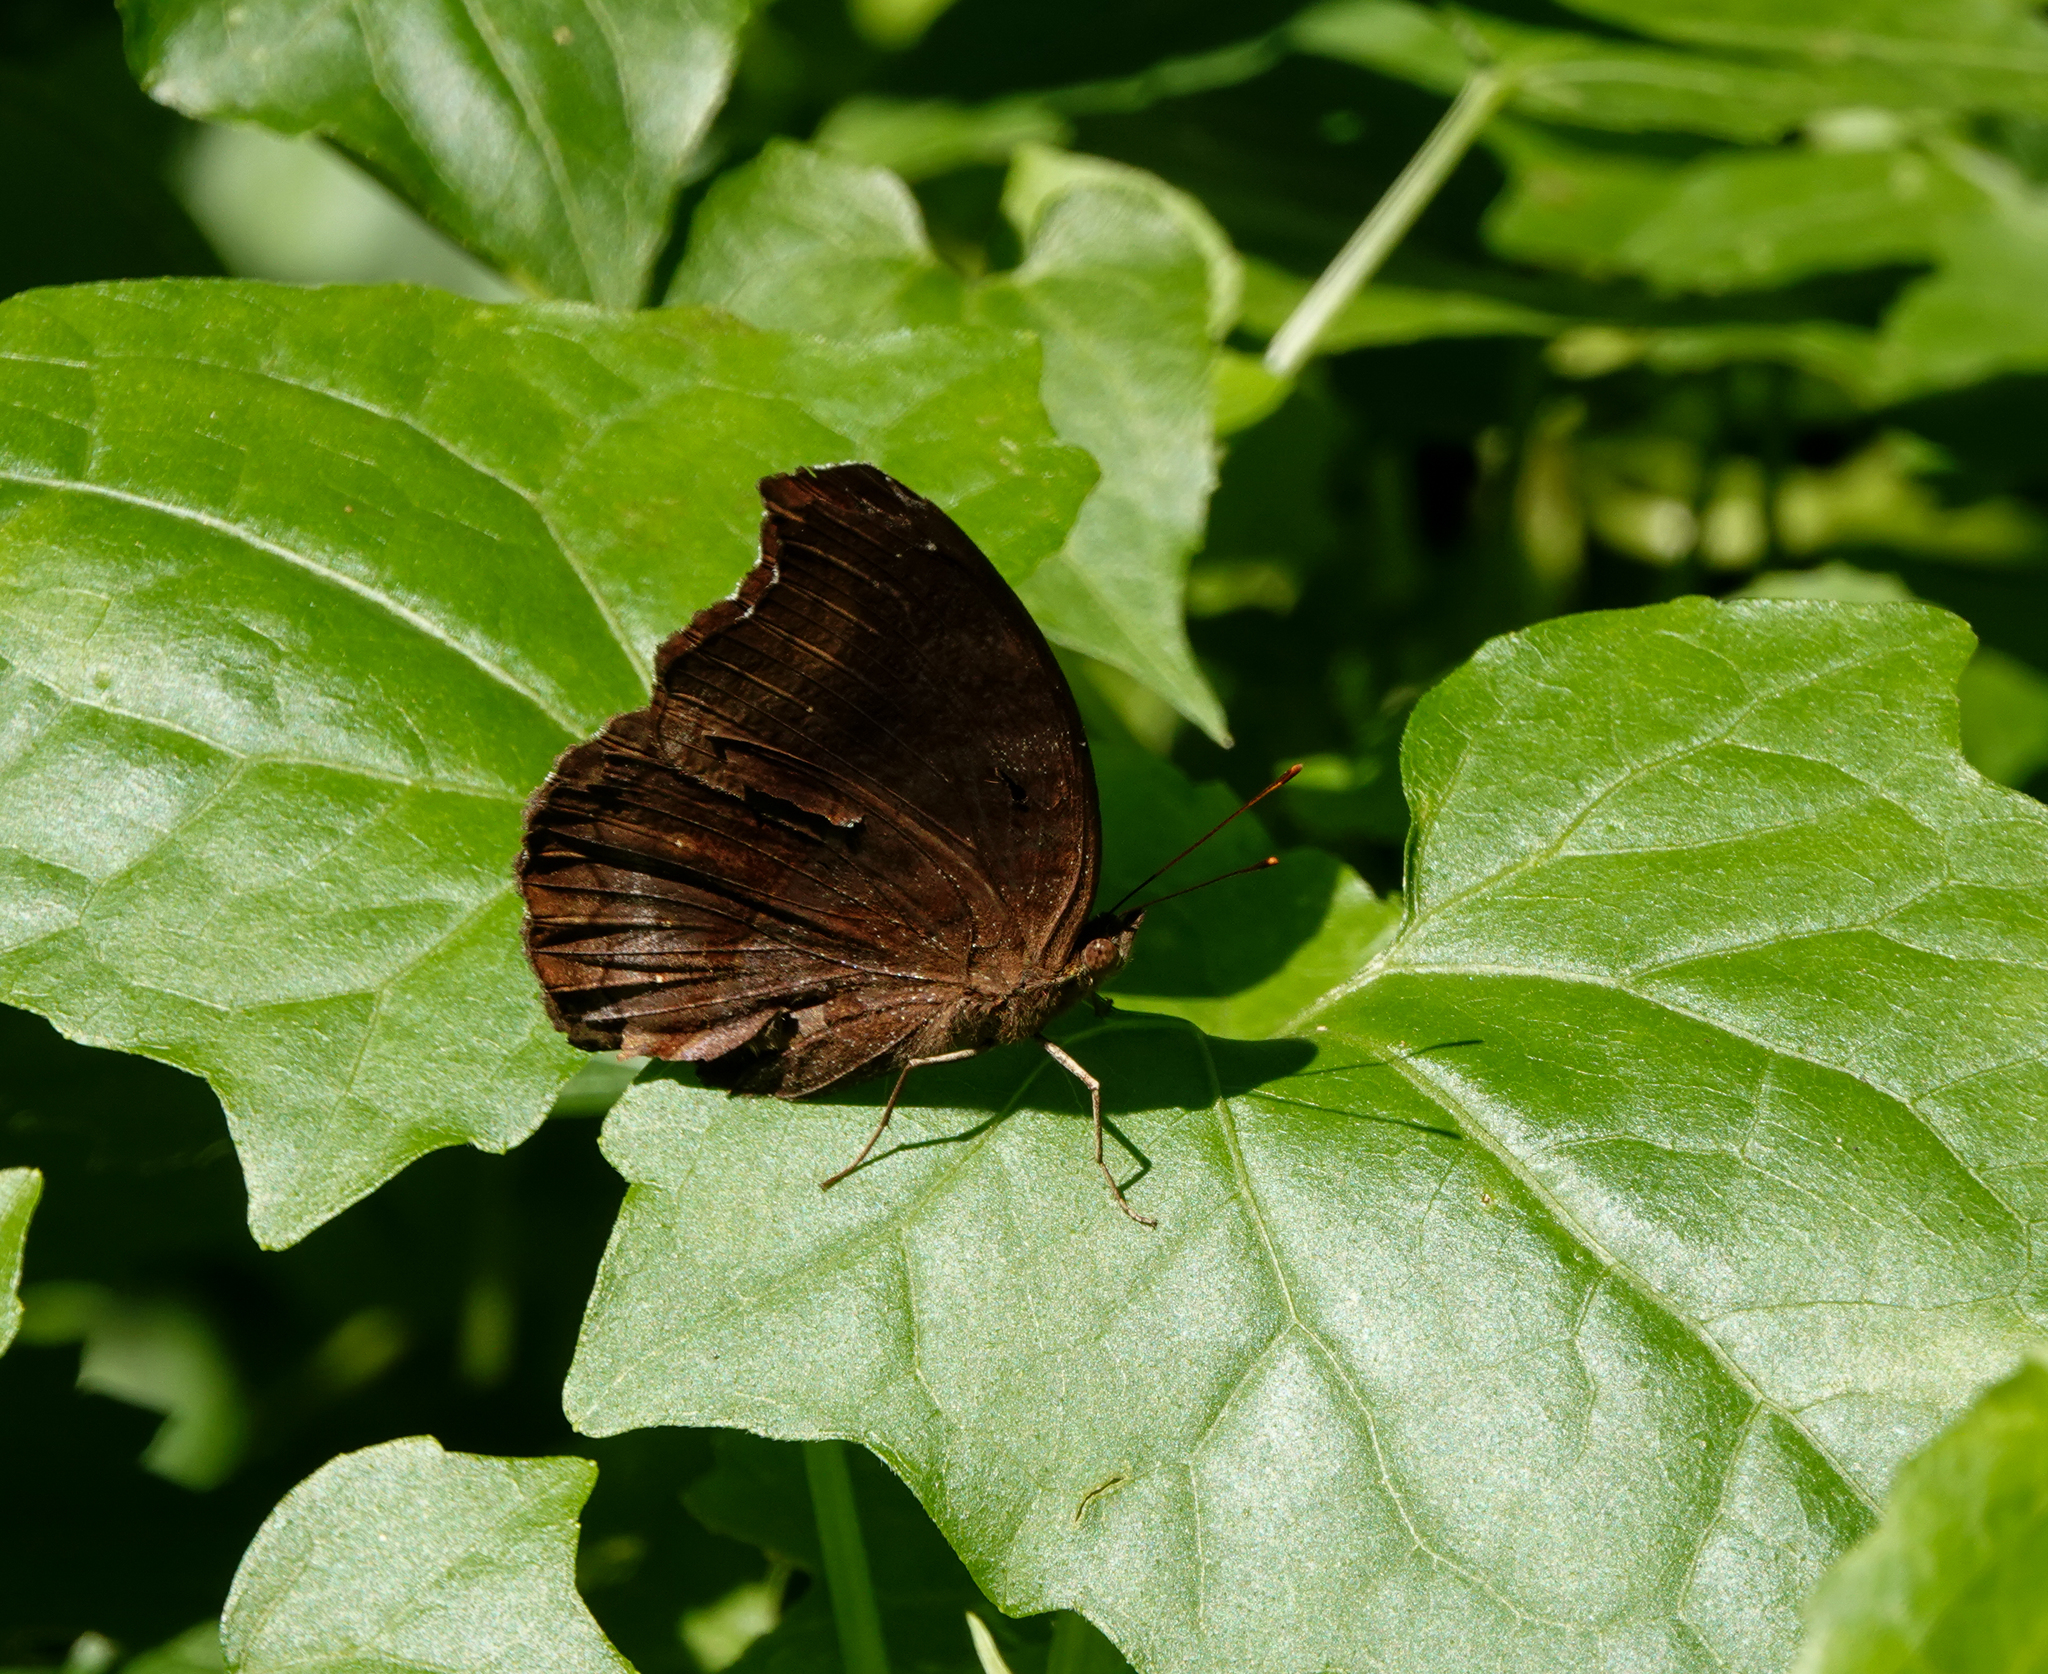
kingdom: Animalia
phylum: Arthropoda
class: Insecta
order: Lepidoptera
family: Nymphalidae
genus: Junonia
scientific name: Junonia iphita
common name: Chocolate pansy
